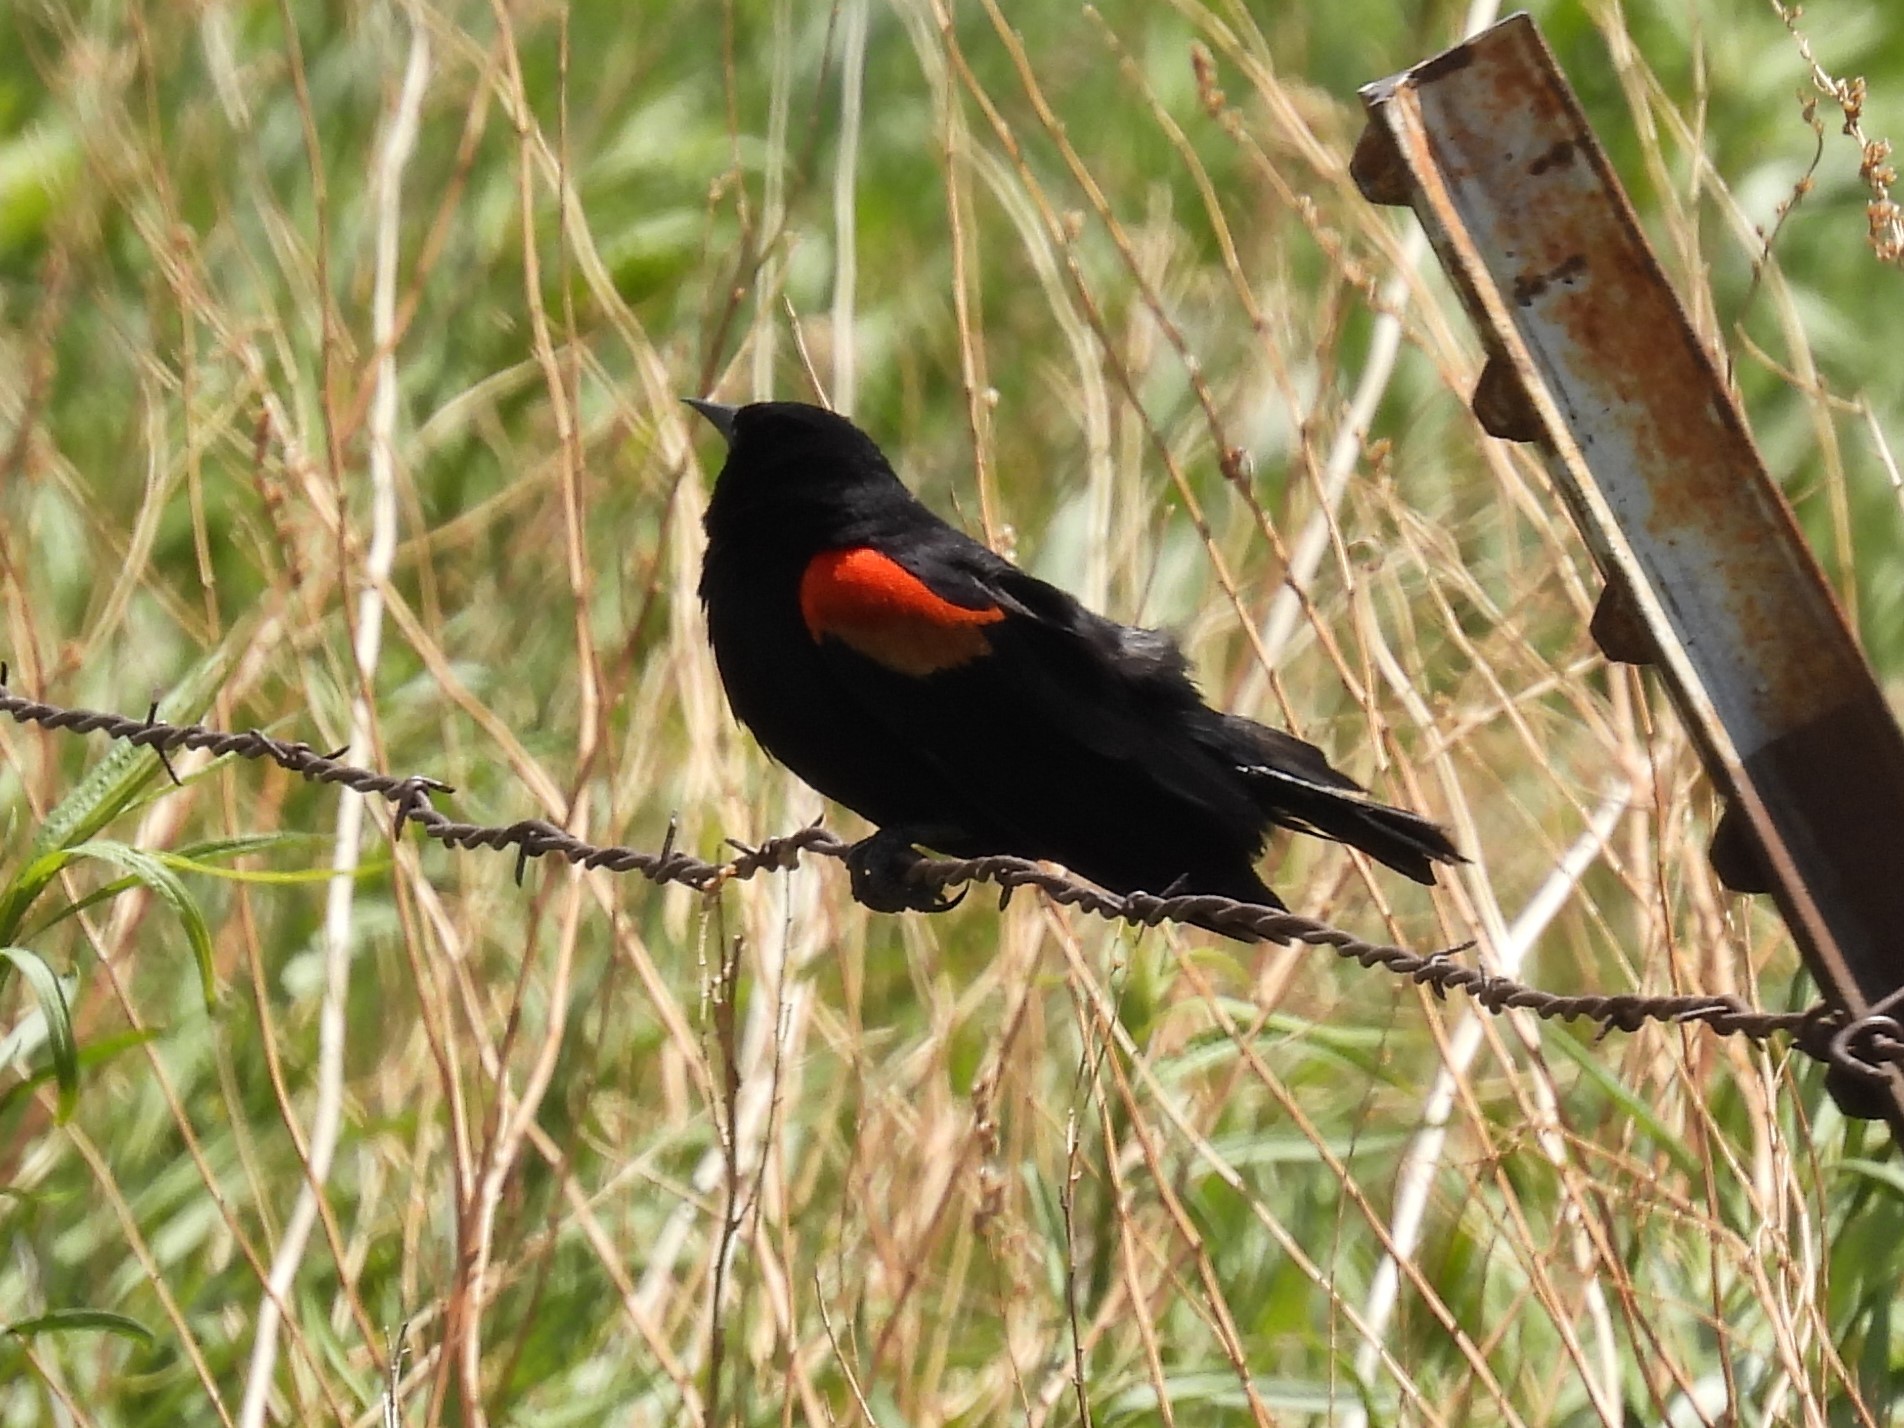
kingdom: Animalia
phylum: Chordata
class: Aves
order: Passeriformes
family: Icteridae
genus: Agelaius
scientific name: Agelaius phoeniceus
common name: Red-winged blackbird
